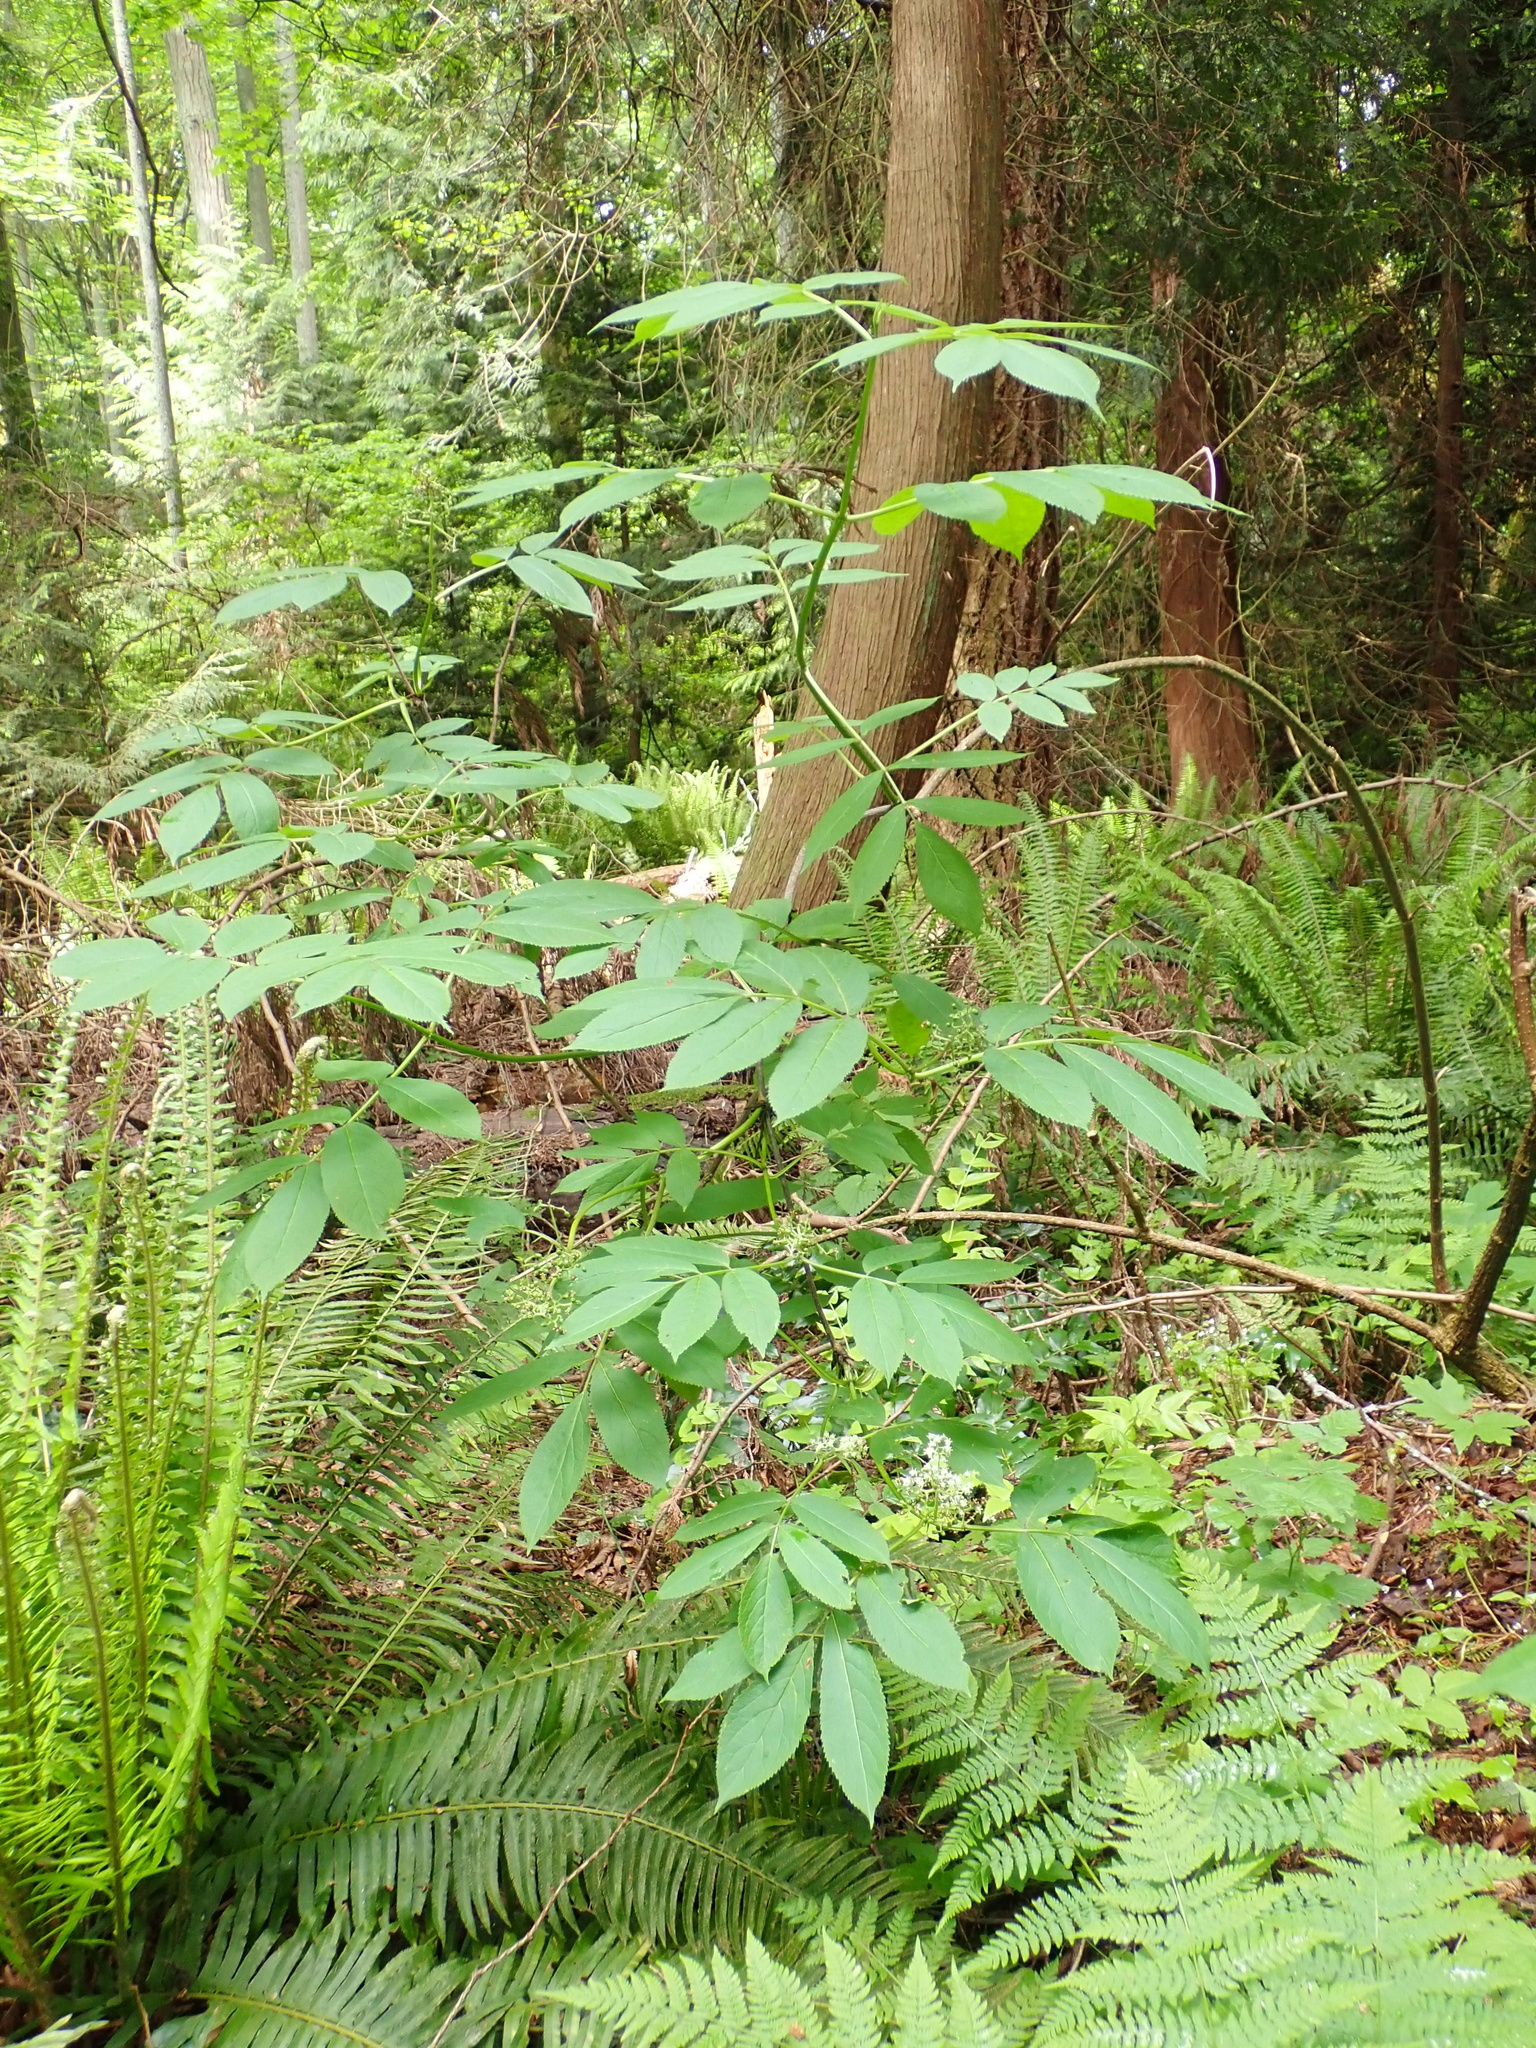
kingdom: Plantae
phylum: Tracheophyta
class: Magnoliopsida
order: Dipsacales
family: Viburnaceae
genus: Sambucus
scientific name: Sambucus racemosa
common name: Red-berried elder
